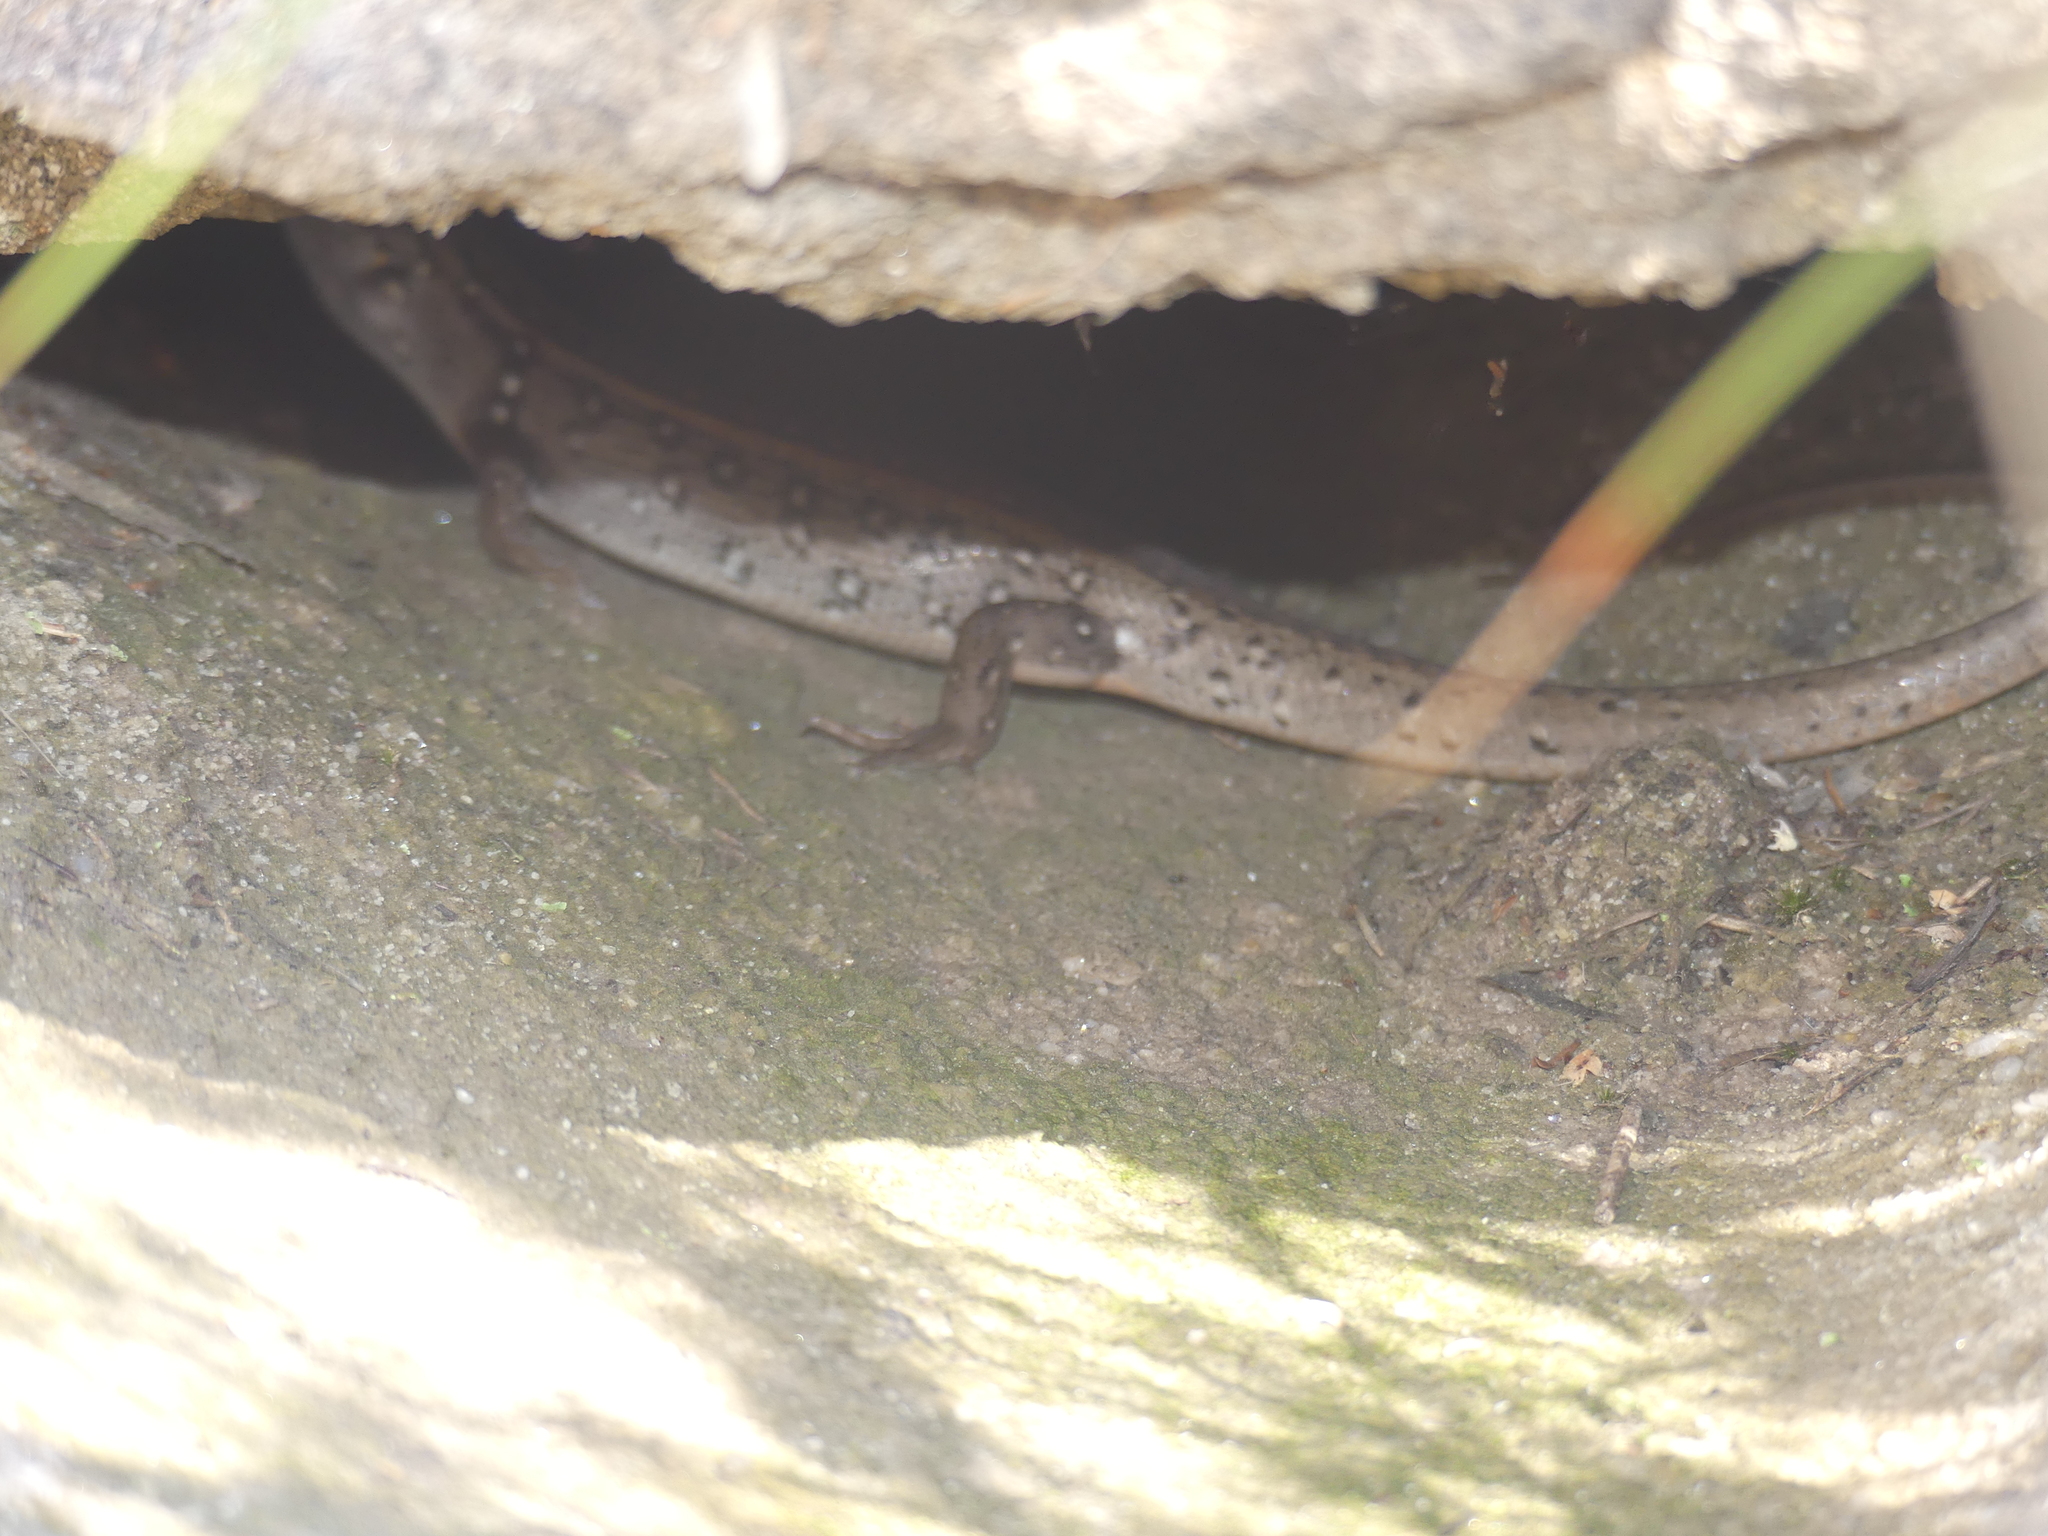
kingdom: Animalia
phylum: Chordata
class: Squamata
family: Scincidae
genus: Liopholis
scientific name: Liopholis whitii
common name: White's rock-skink
